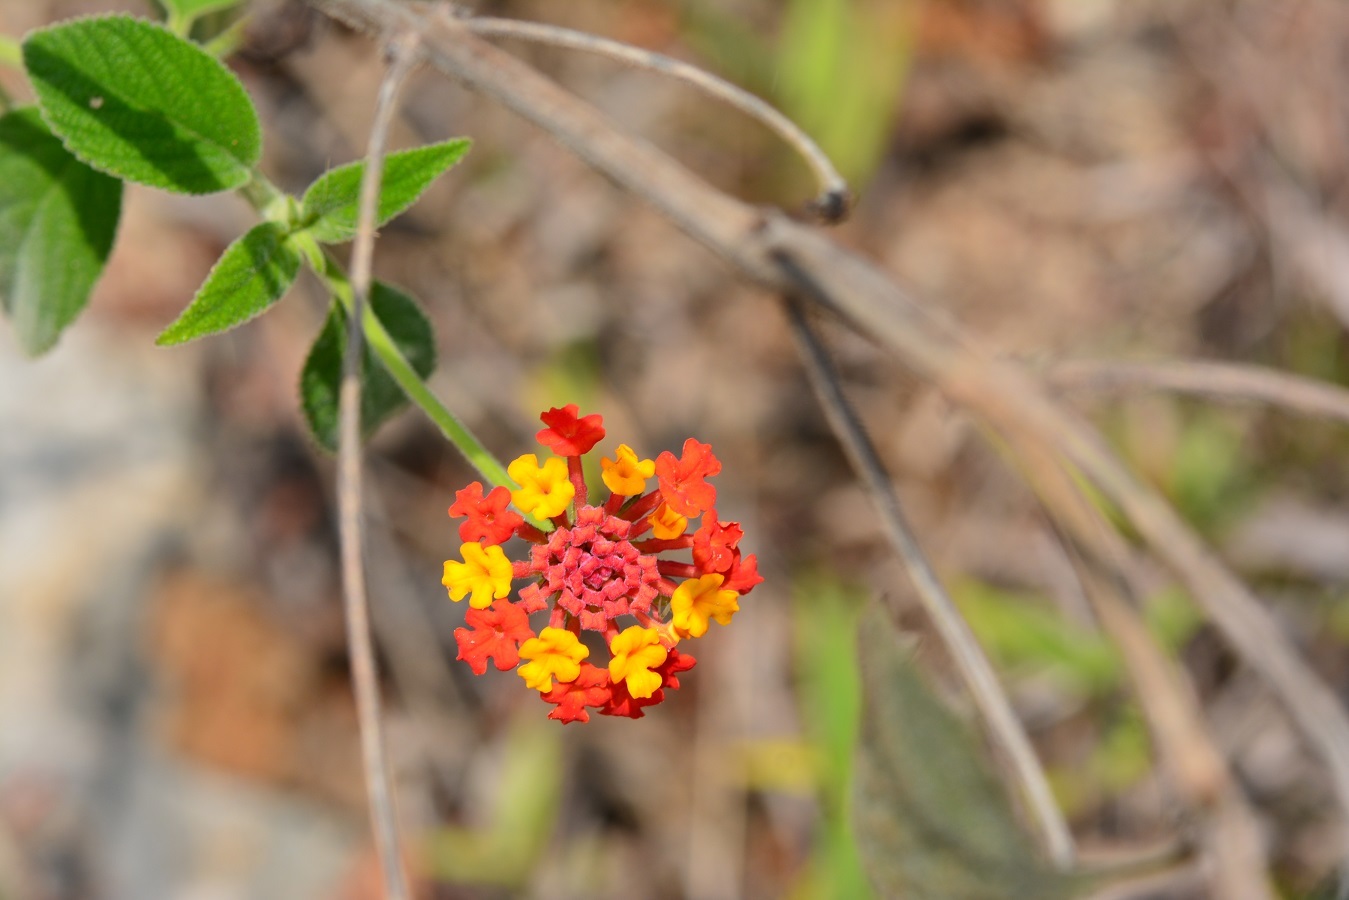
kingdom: Plantae
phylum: Tracheophyta
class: Magnoliopsida
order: Lamiales
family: Verbenaceae
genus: Lantana
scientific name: Lantana camara
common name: Lantana
